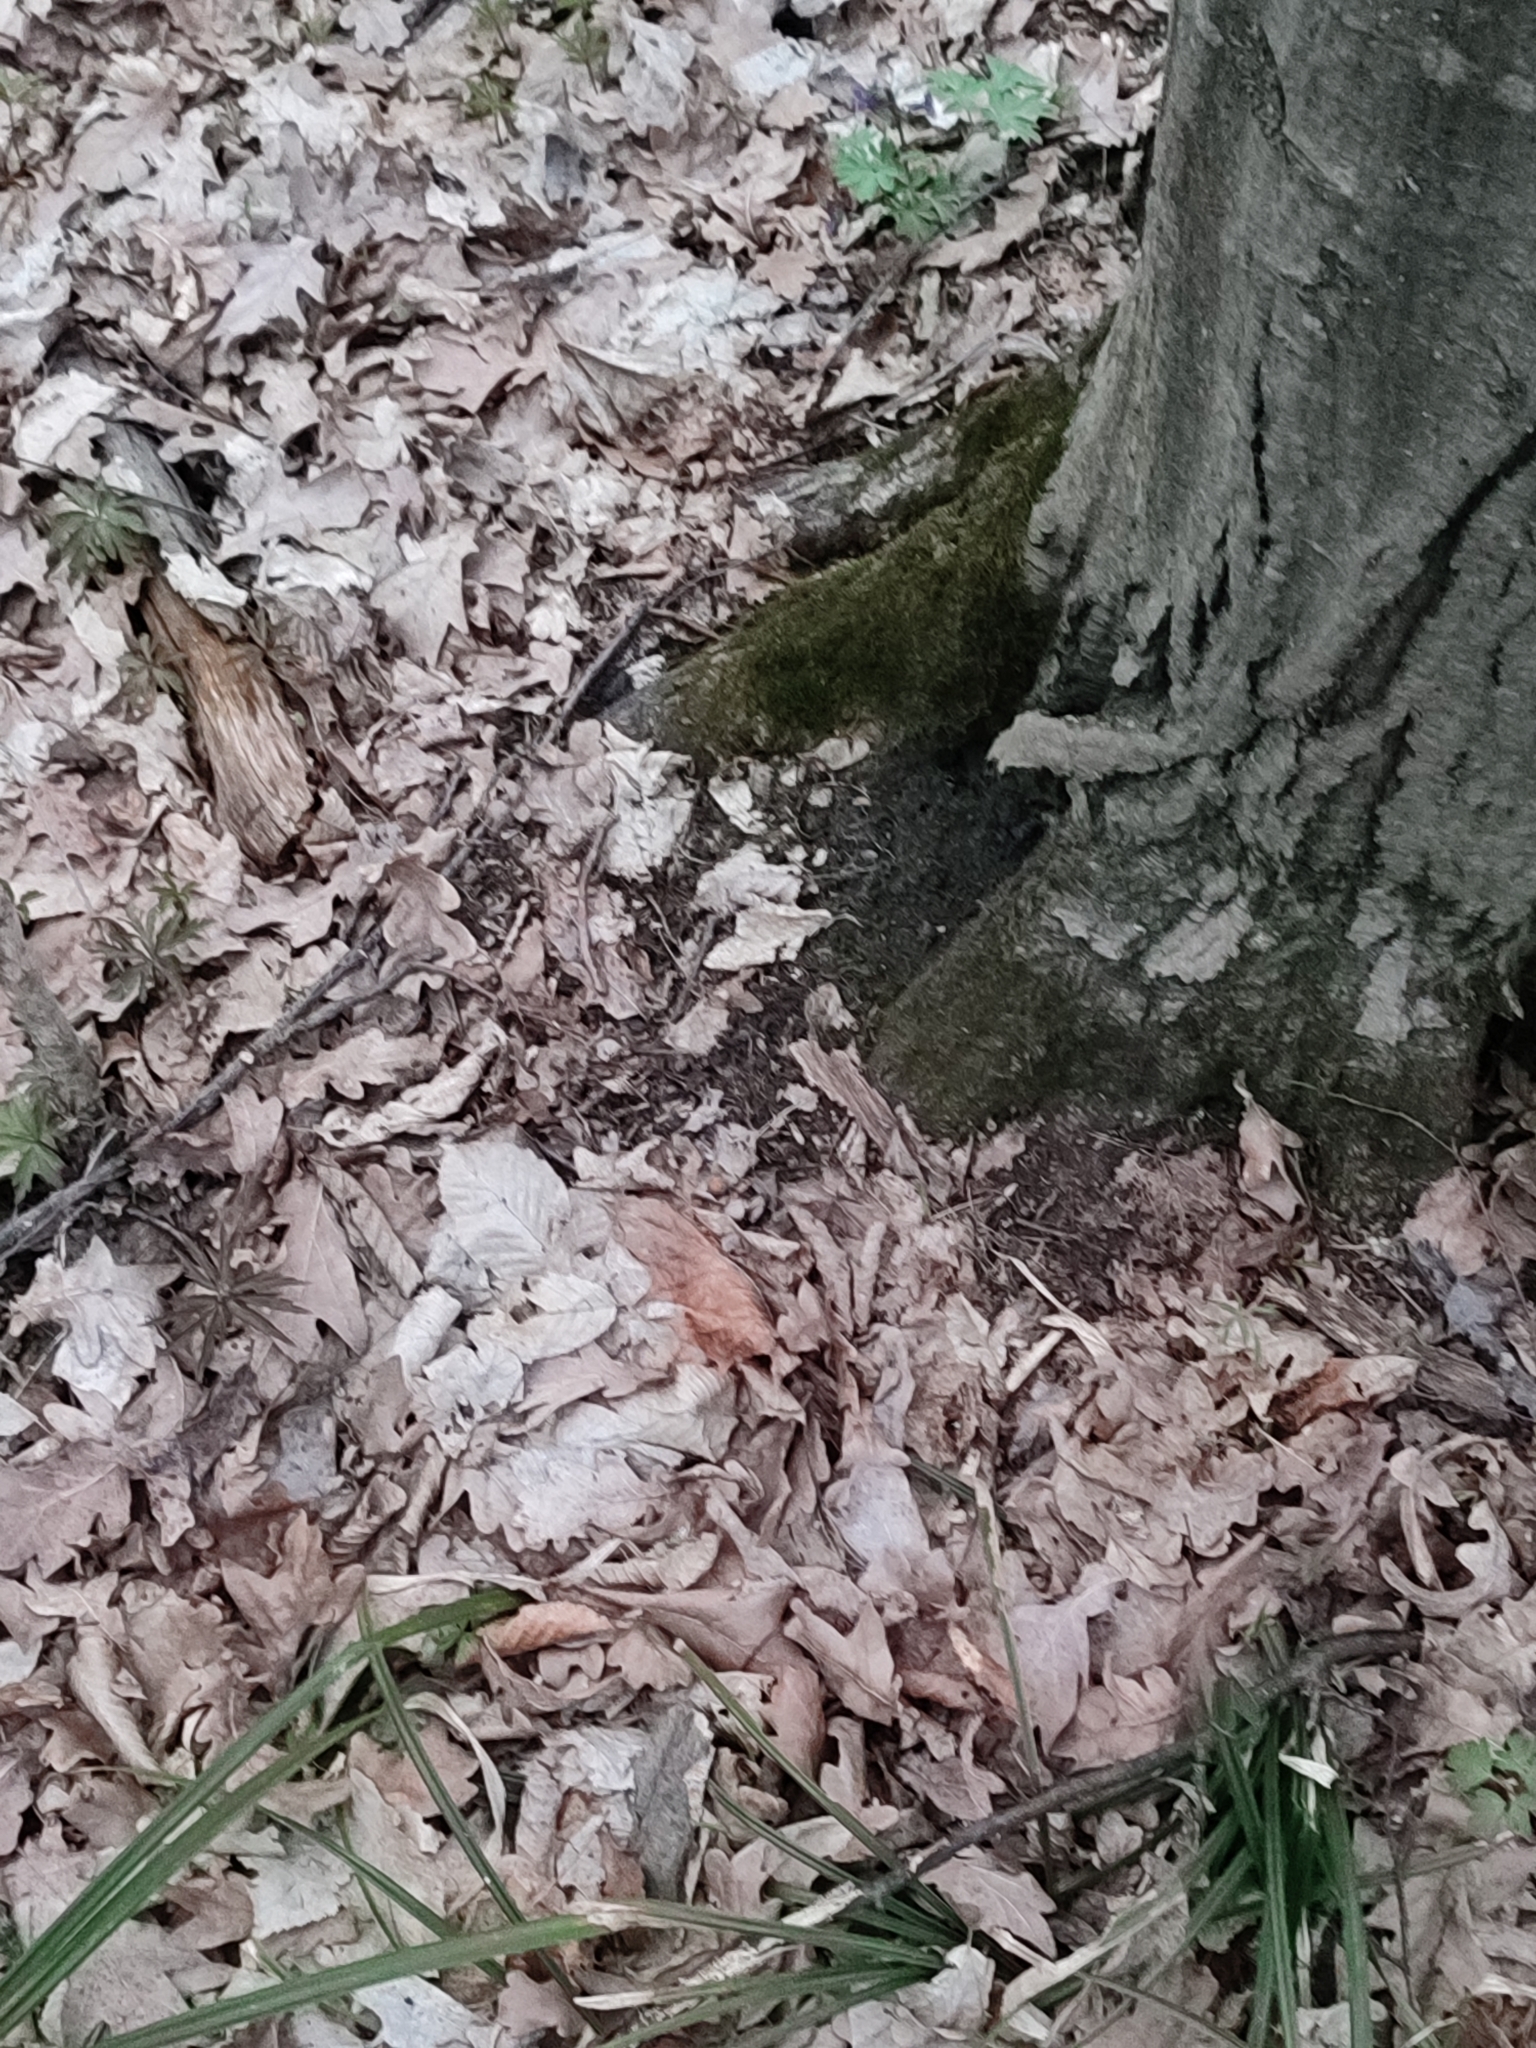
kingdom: Plantae
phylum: Tracheophyta
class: Magnoliopsida
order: Fagales
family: Betulaceae
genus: Carpinus
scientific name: Carpinus betulus
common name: Hornbeam
